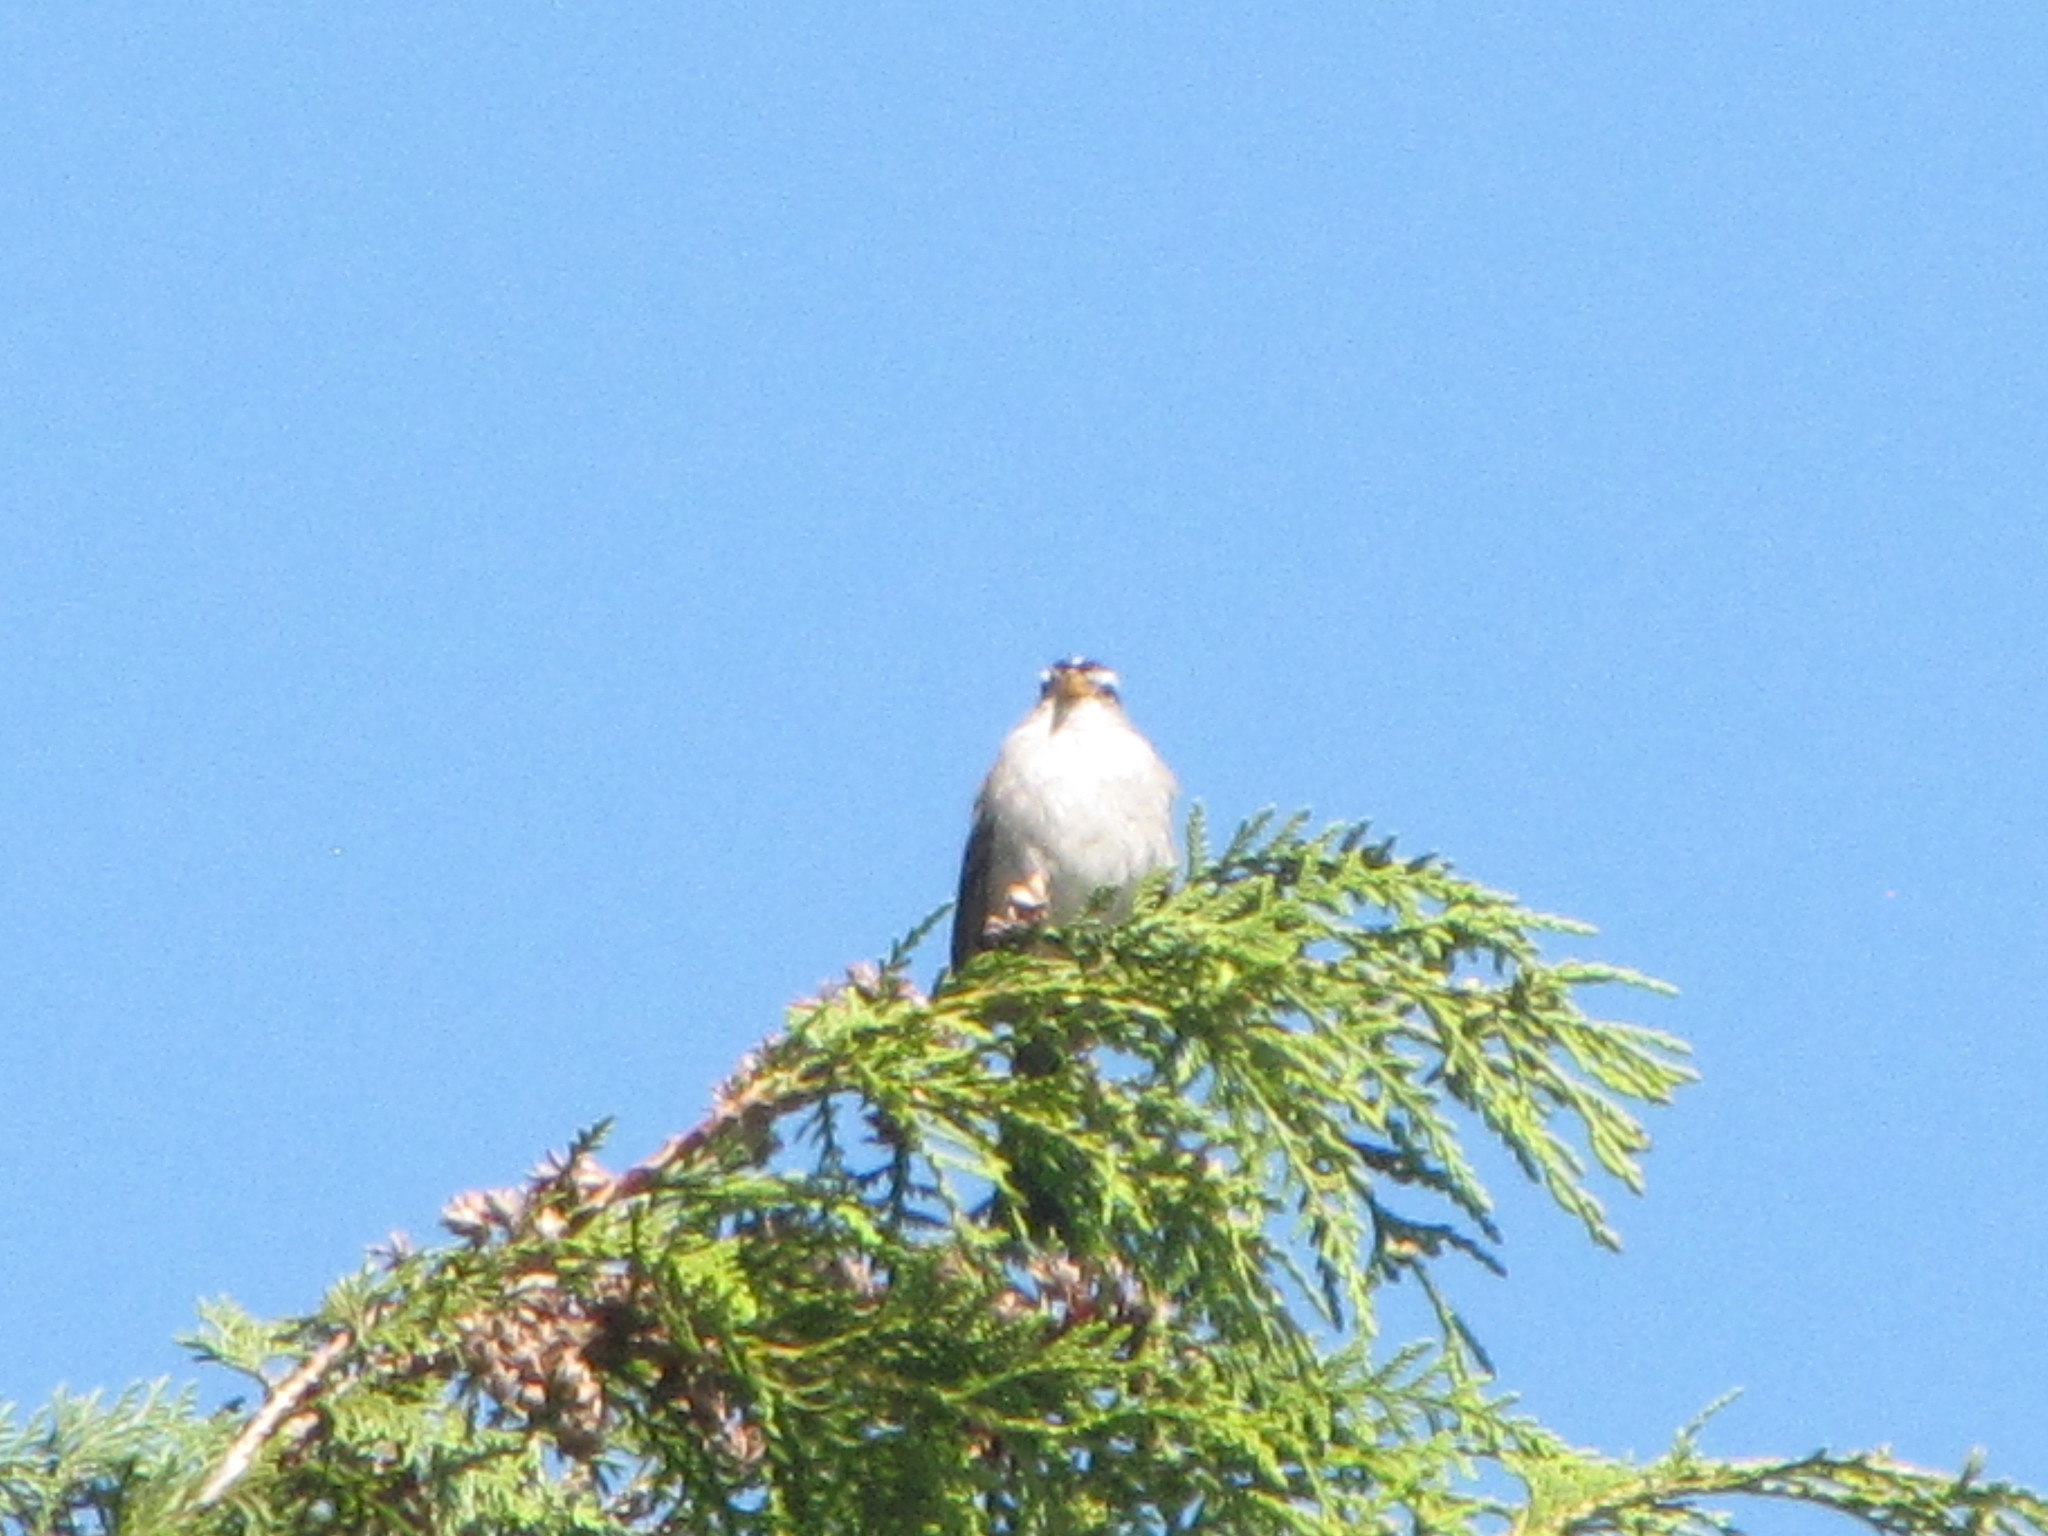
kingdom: Animalia
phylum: Chordata
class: Aves
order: Passeriformes
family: Passerellidae
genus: Zonotrichia
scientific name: Zonotrichia leucophrys
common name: White-crowned sparrow
